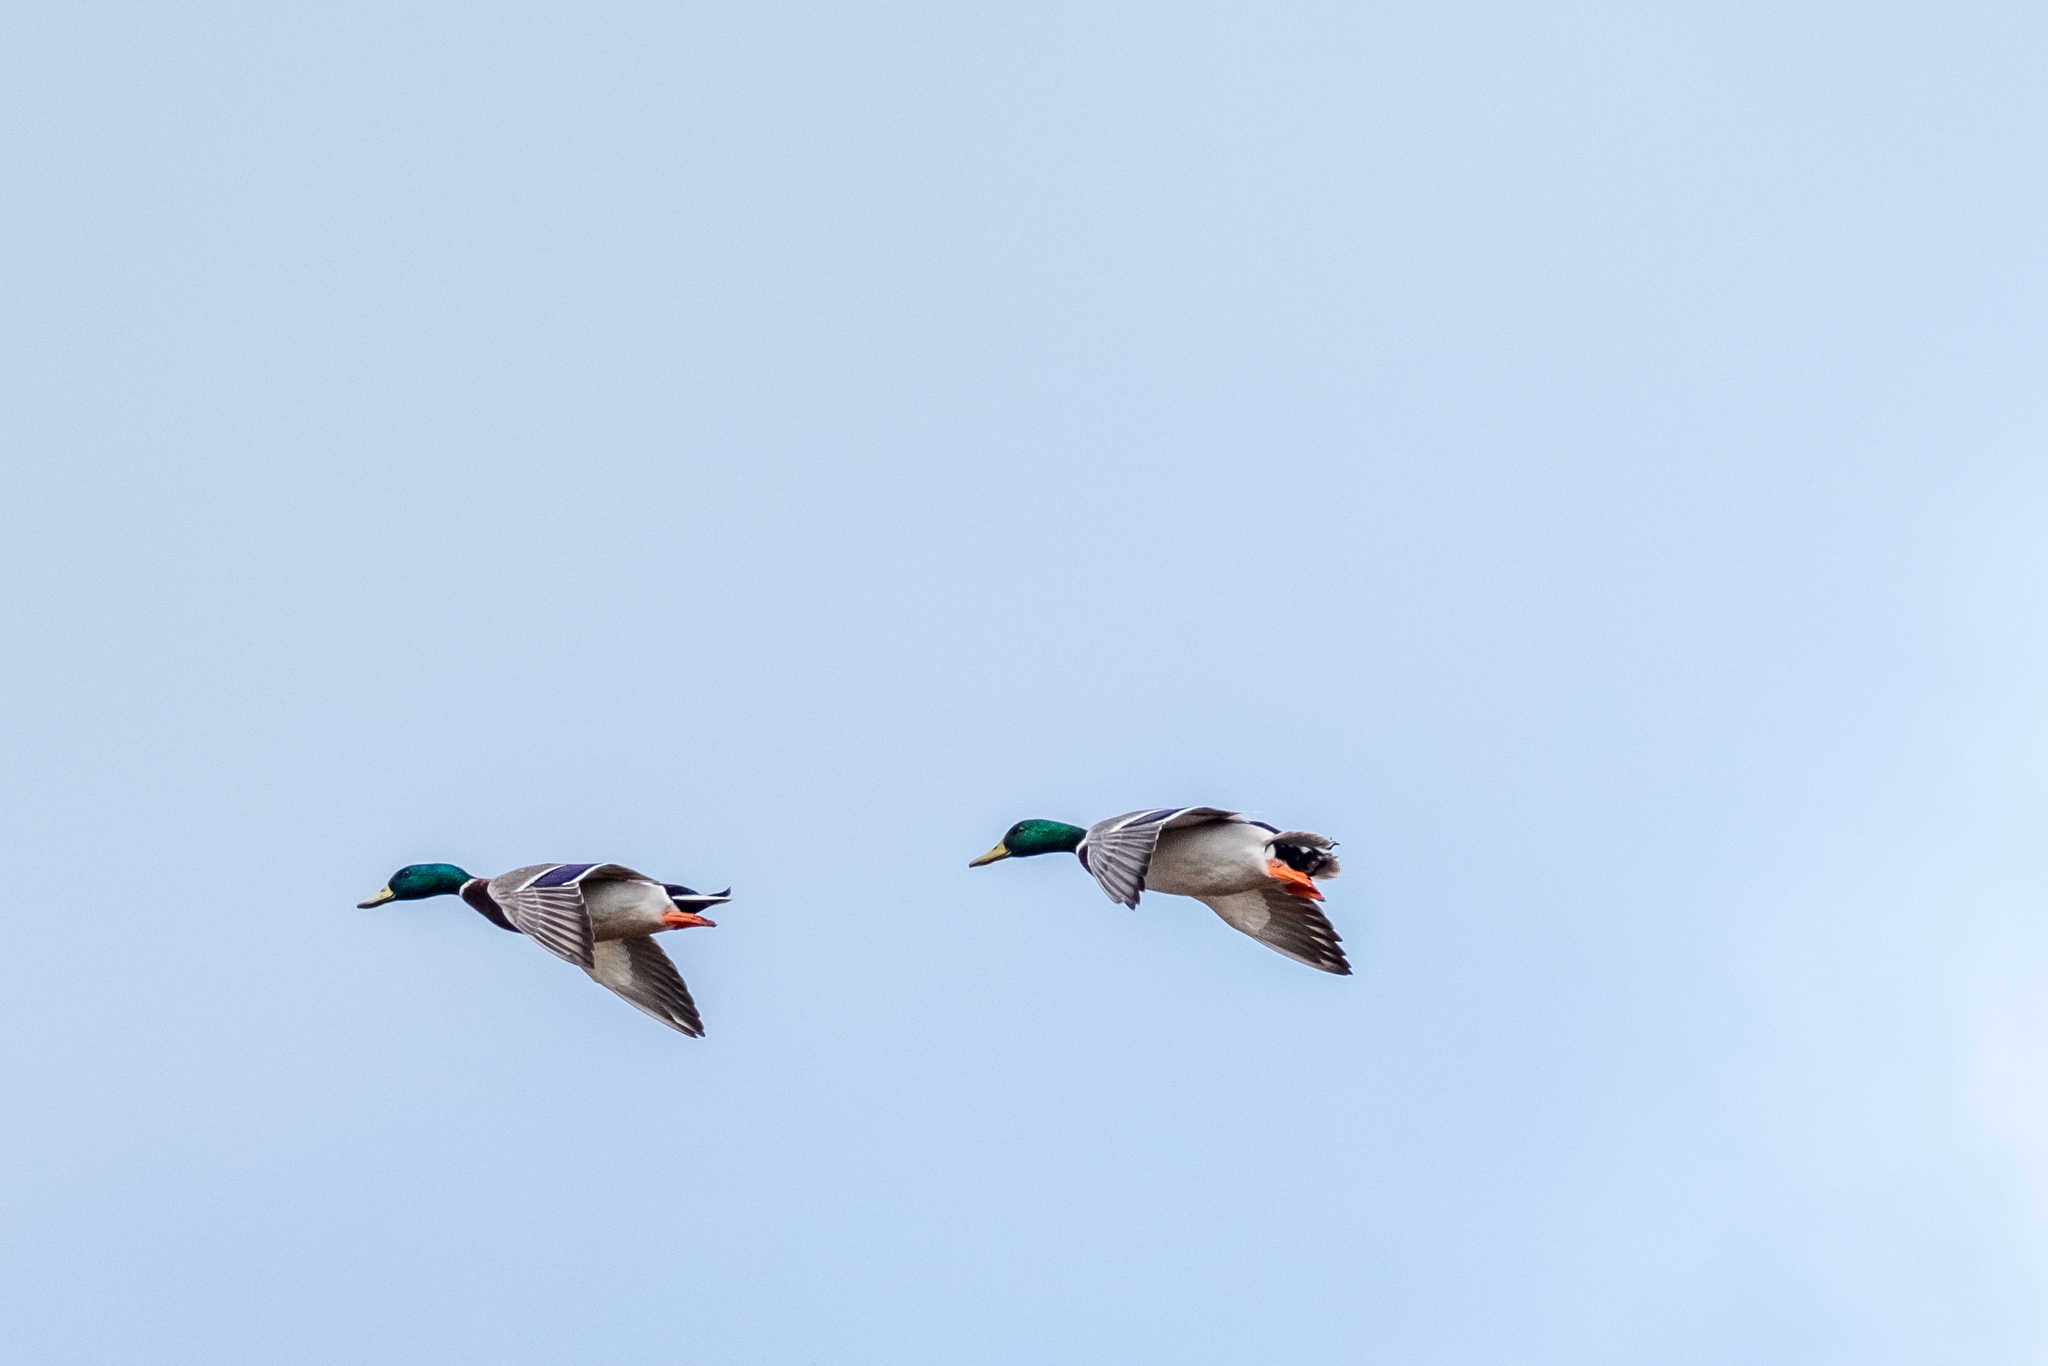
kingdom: Animalia
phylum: Chordata
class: Aves
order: Anseriformes
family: Anatidae
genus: Anas
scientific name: Anas platyrhynchos
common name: Mallard
